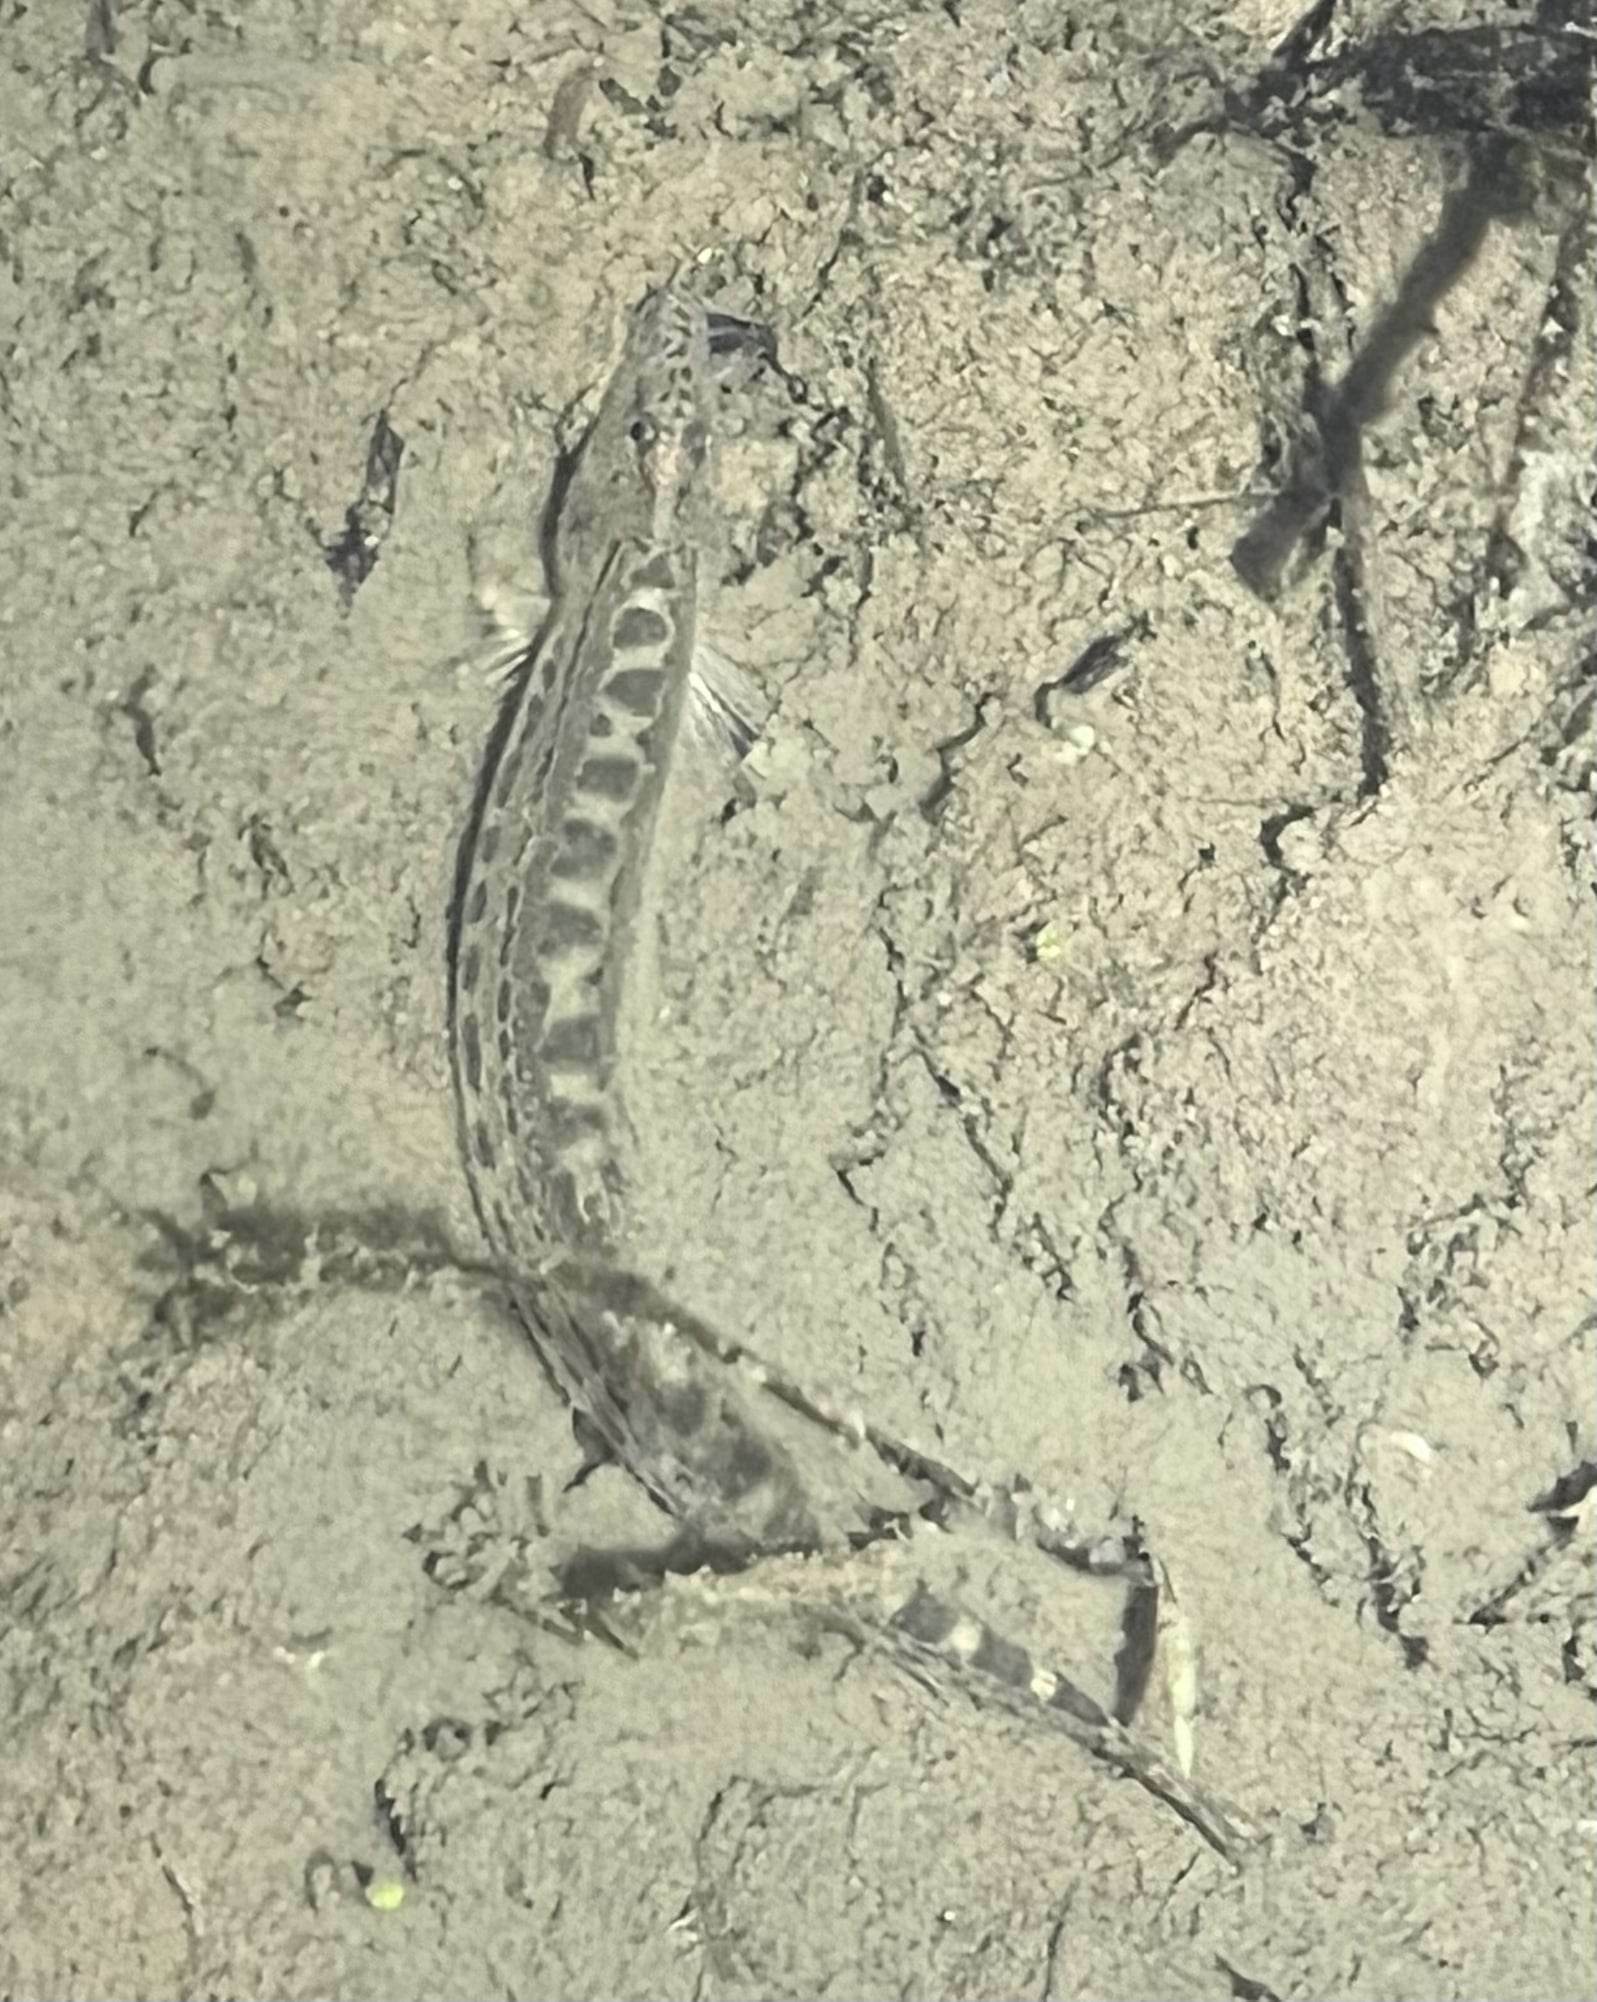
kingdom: Animalia
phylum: Chordata
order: Cypriniformes
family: Cobitidae
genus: Cobitis
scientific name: Cobitis satunini
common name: Colchic spined loach
